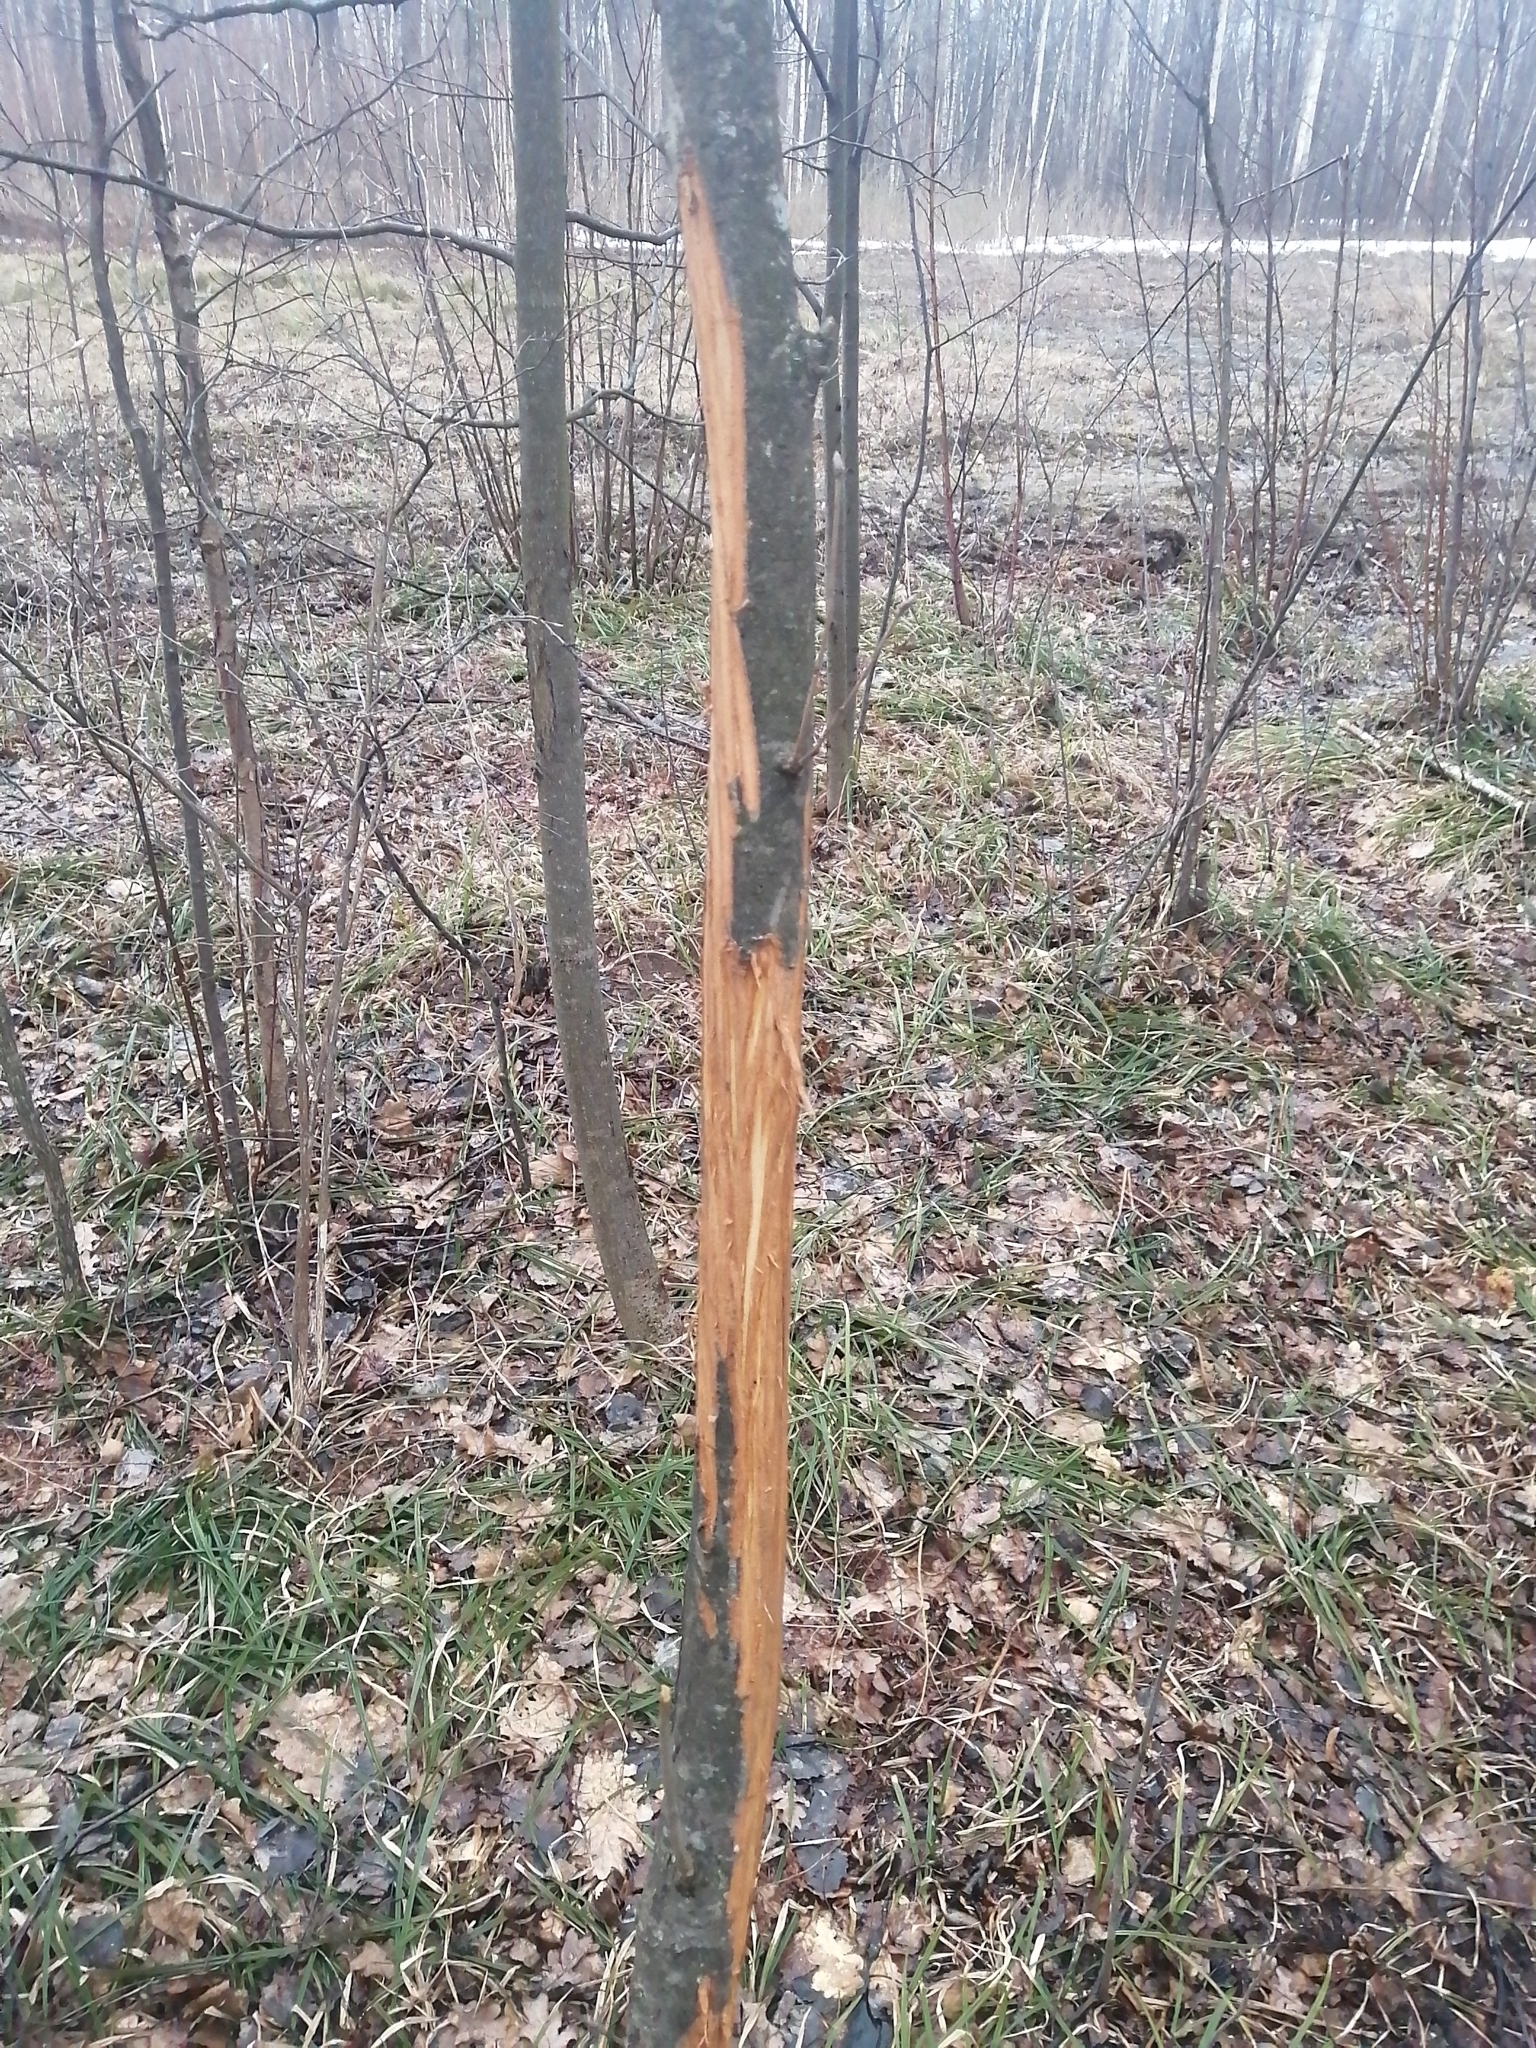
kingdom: Animalia
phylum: Chordata
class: Mammalia
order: Artiodactyla
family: Cervidae
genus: Alces
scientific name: Alces alces
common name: Moose
